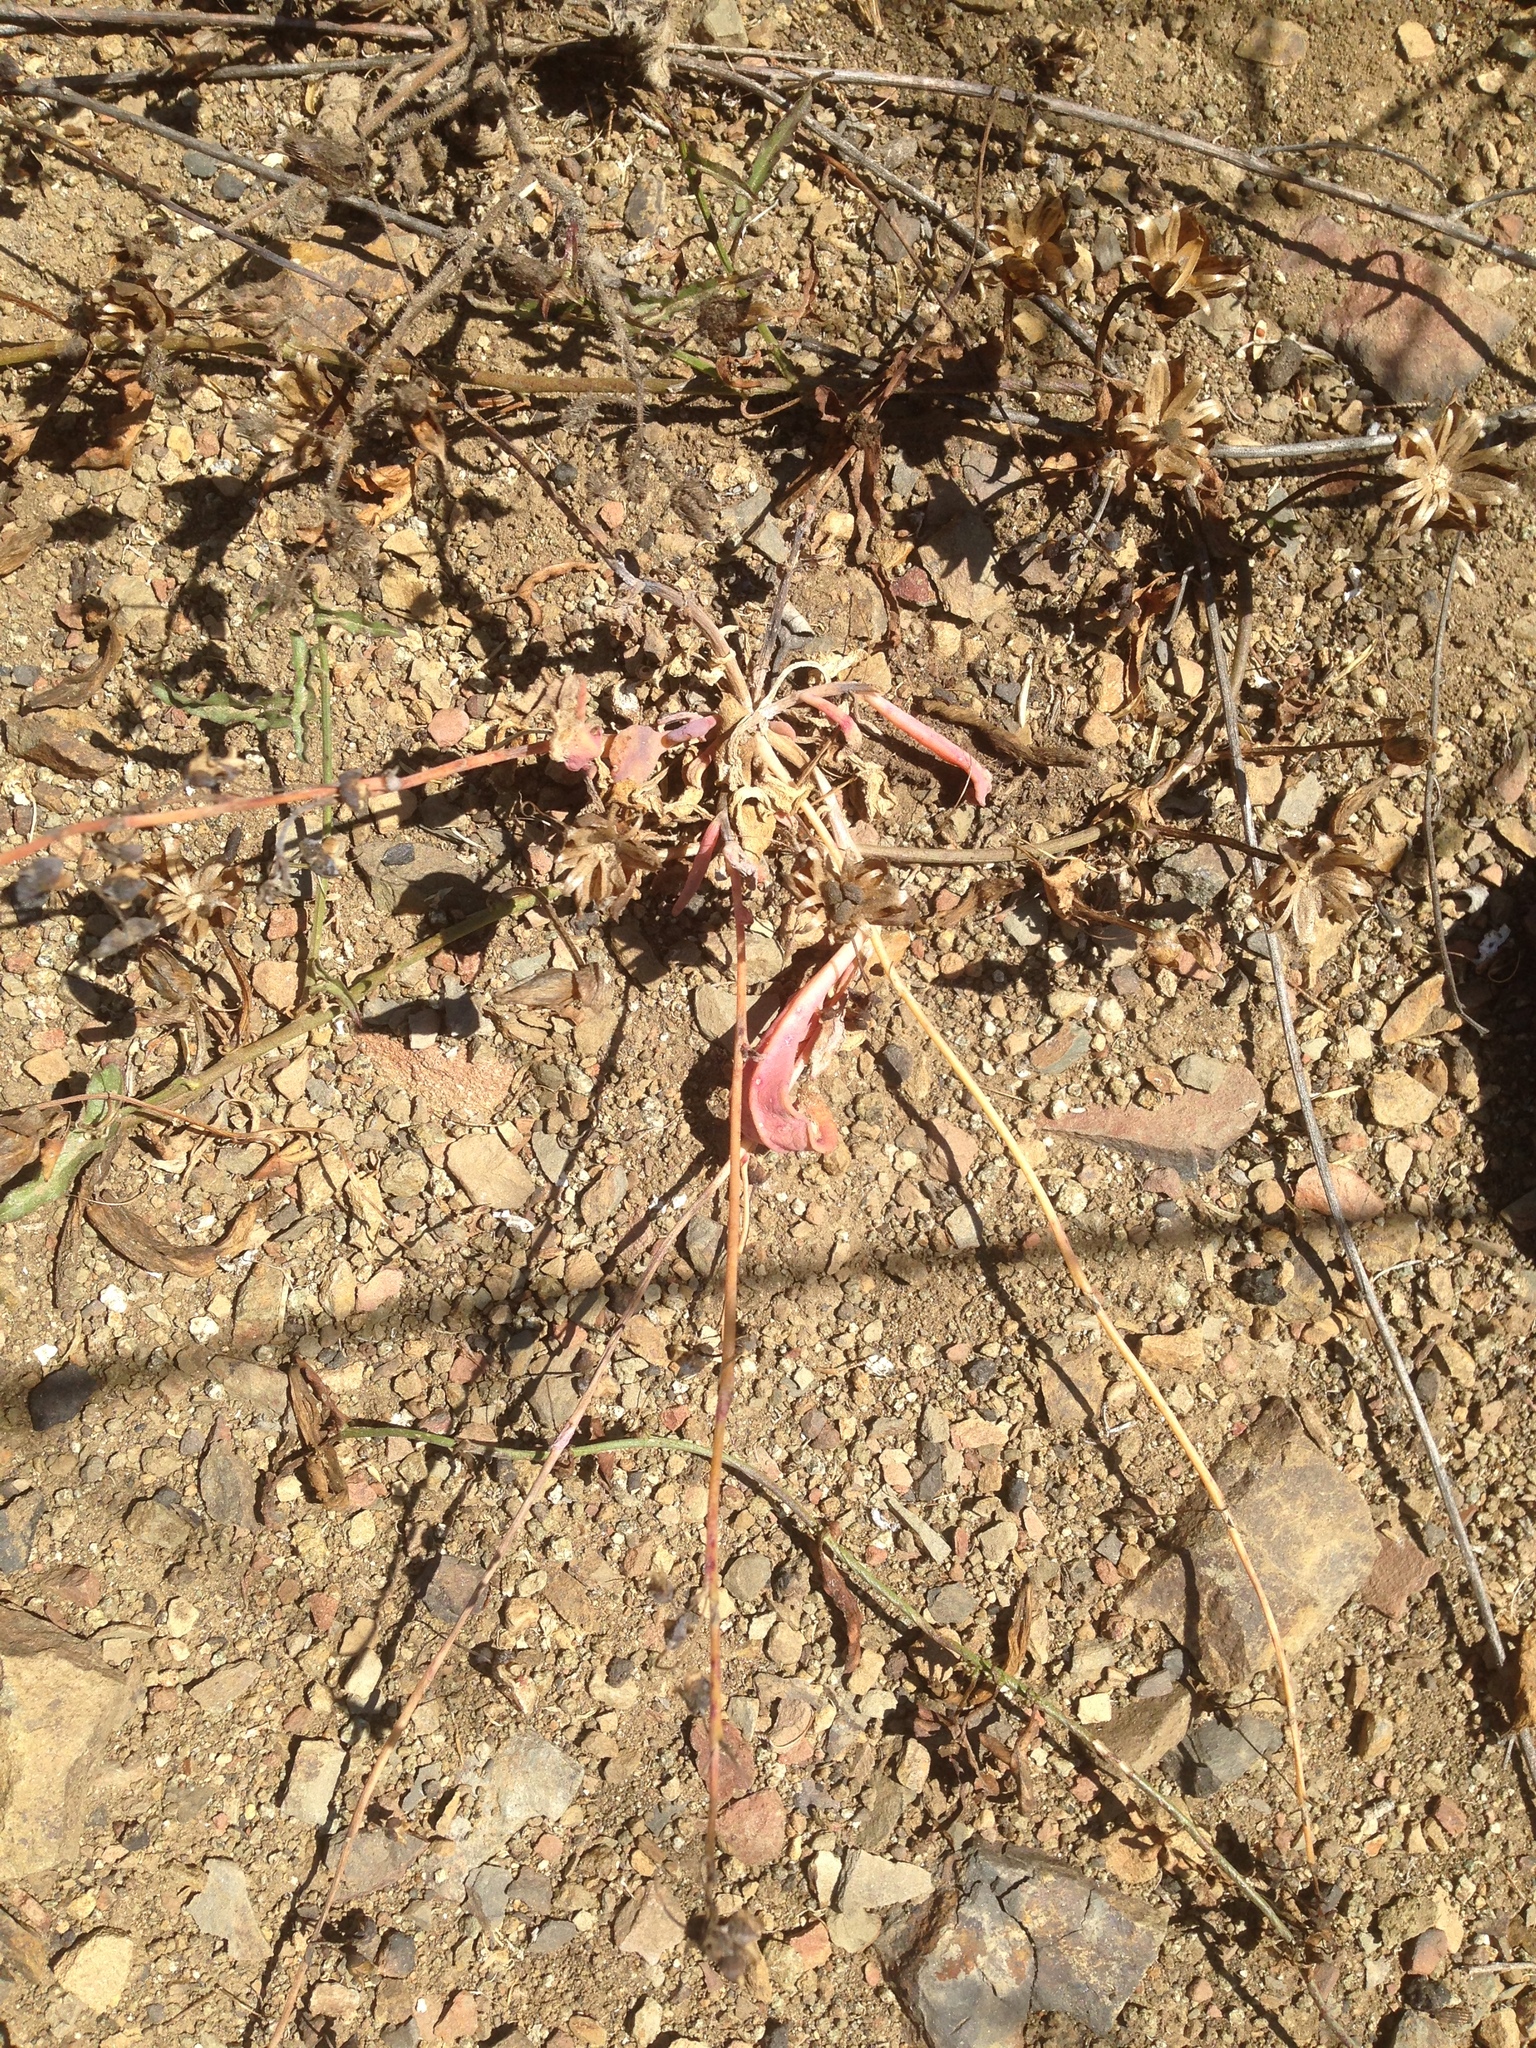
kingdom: Plantae
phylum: Tracheophyta
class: Magnoliopsida
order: Caryophyllales
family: Montiaceae
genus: Cistanthe
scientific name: Cistanthe maritima
